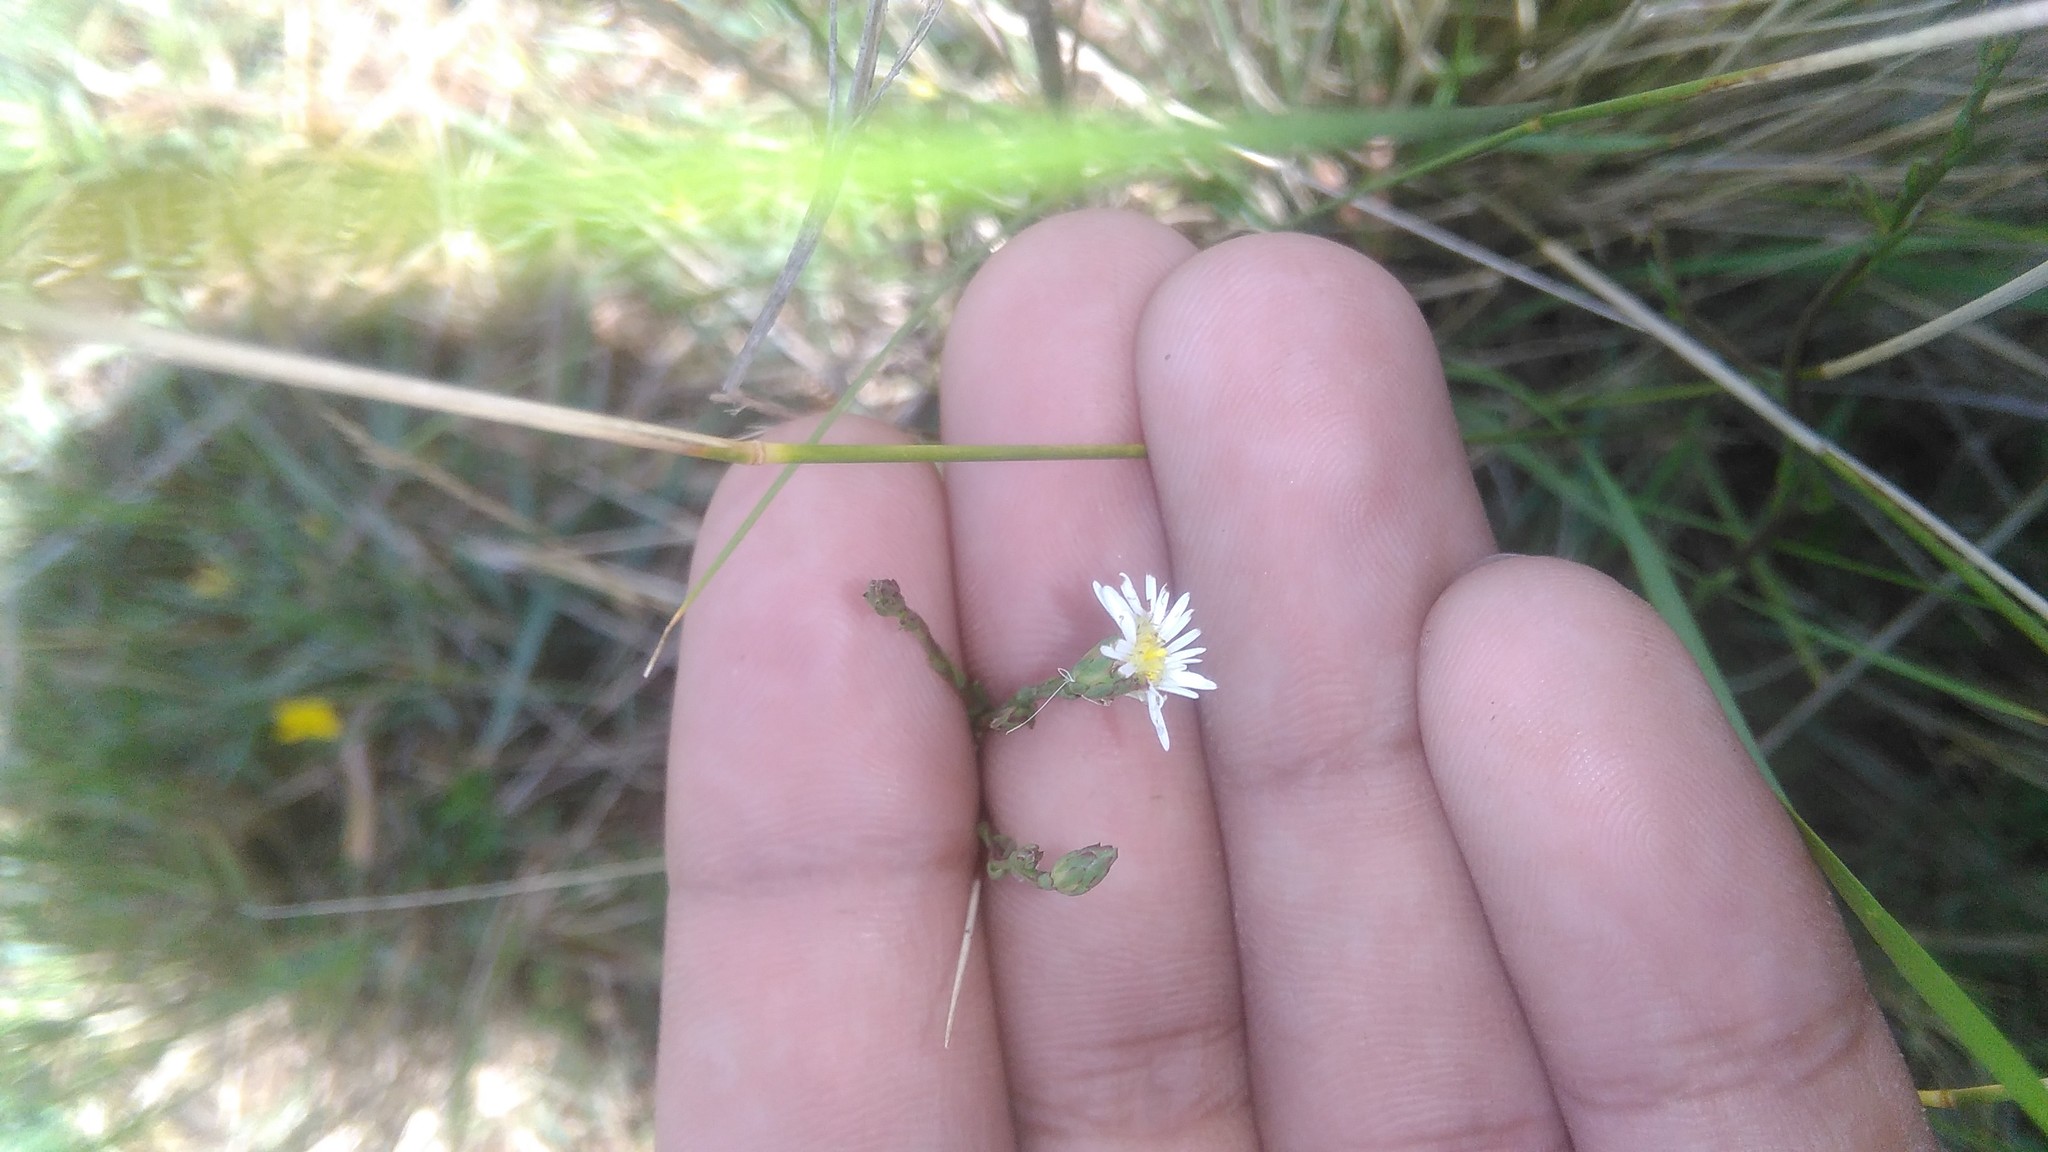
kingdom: Plantae
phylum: Tracheophyta
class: Magnoliopsida
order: Asterales
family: Asteraceae
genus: Symphyotrichum
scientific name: Symphyotrichum squamatum
